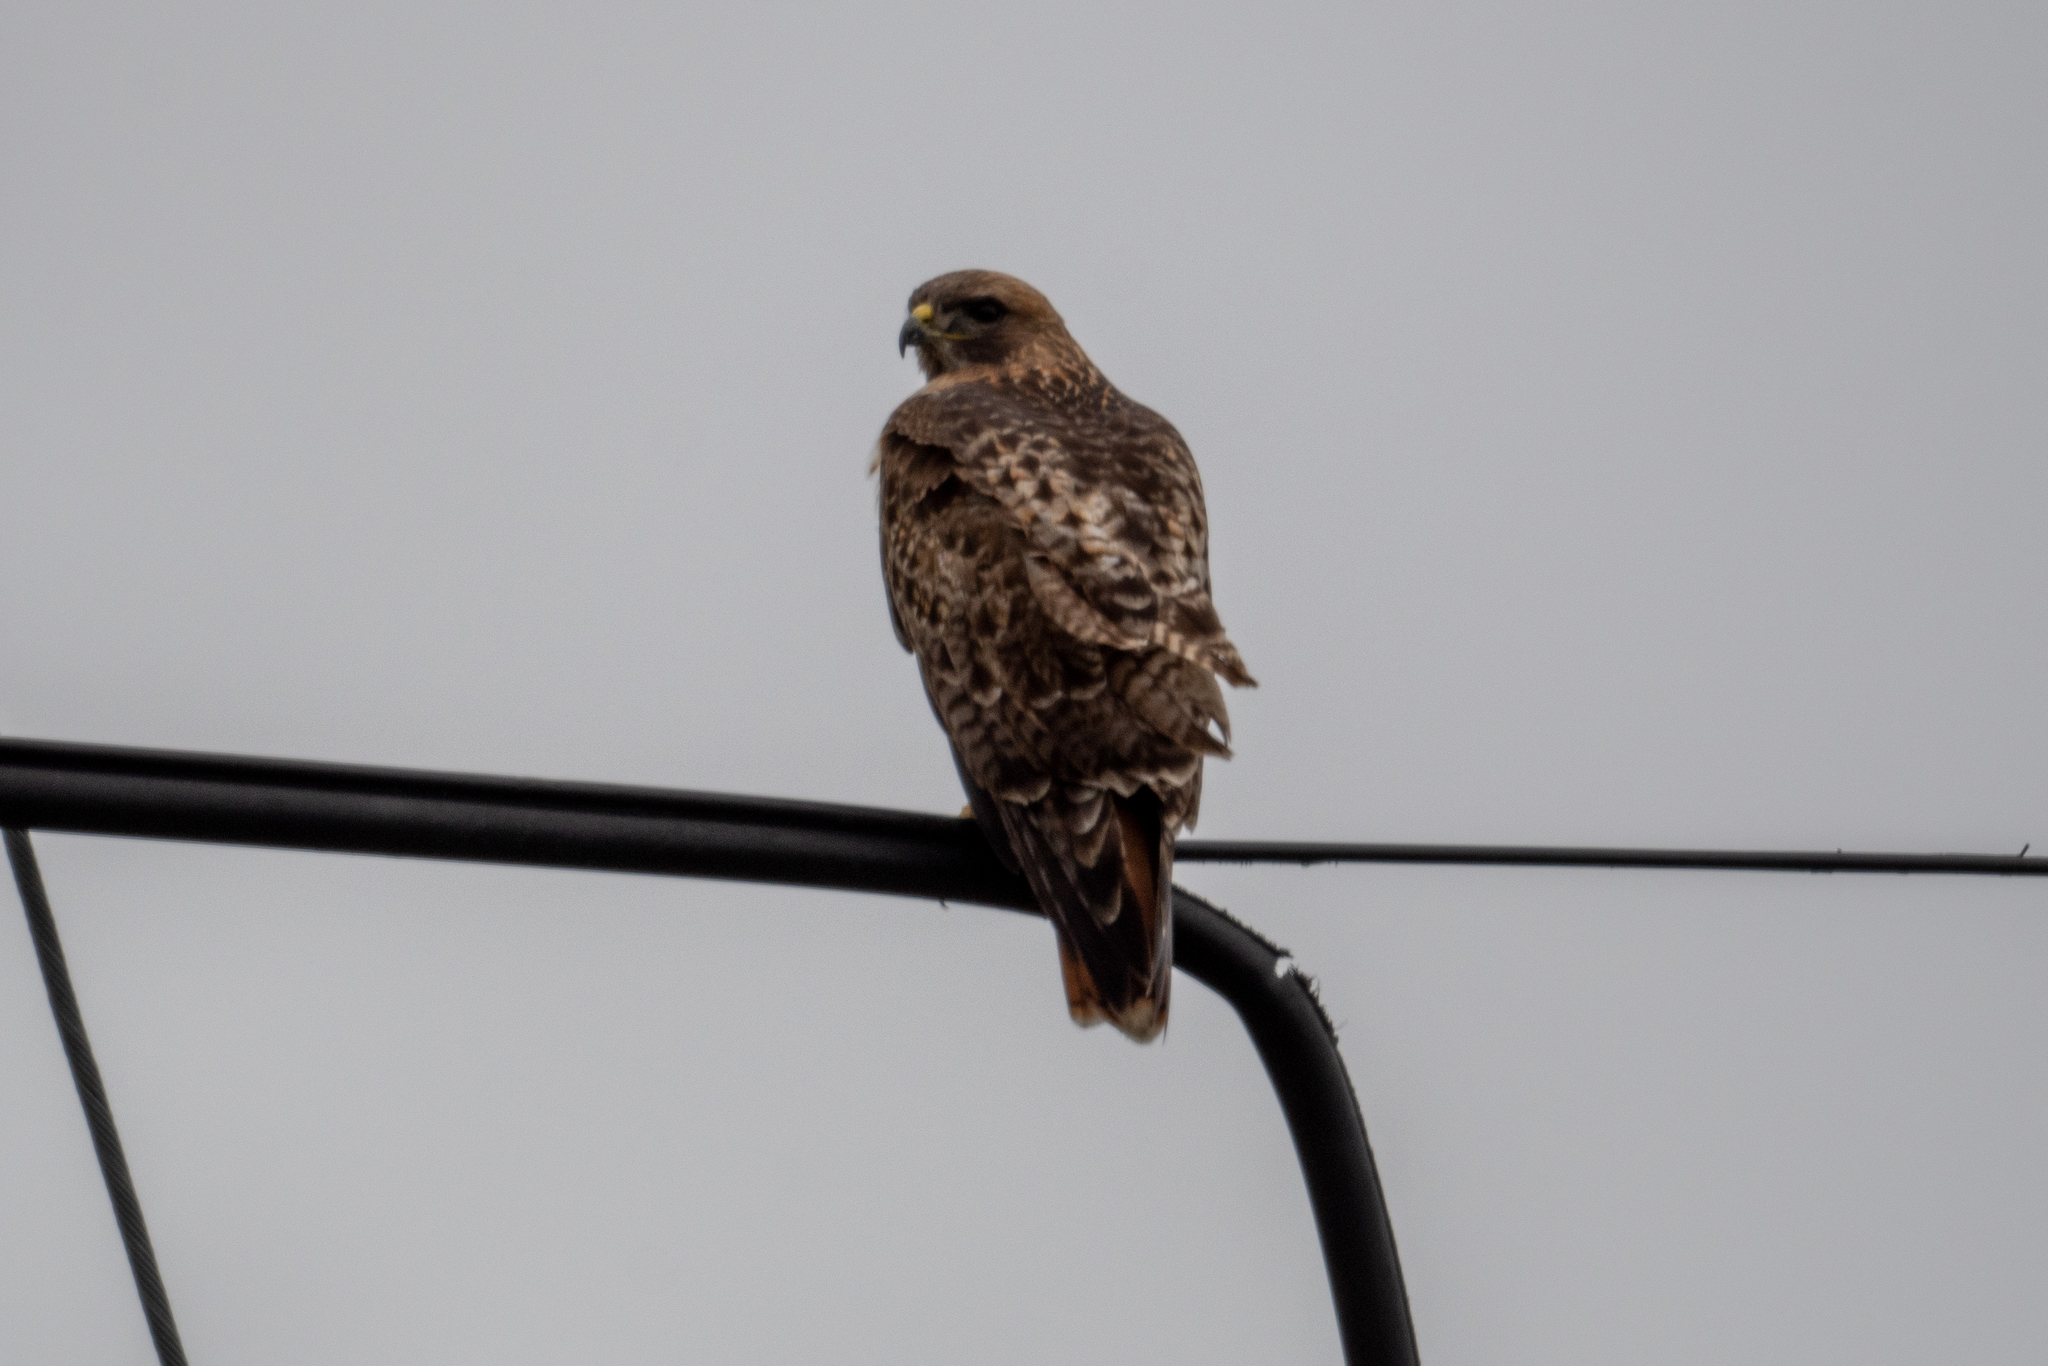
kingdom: Animalia
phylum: Chordata
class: Aves
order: Accipitriformes
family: Accipitridae
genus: Buteo
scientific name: Buteo jamaicensis
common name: Red-tailed hawk
